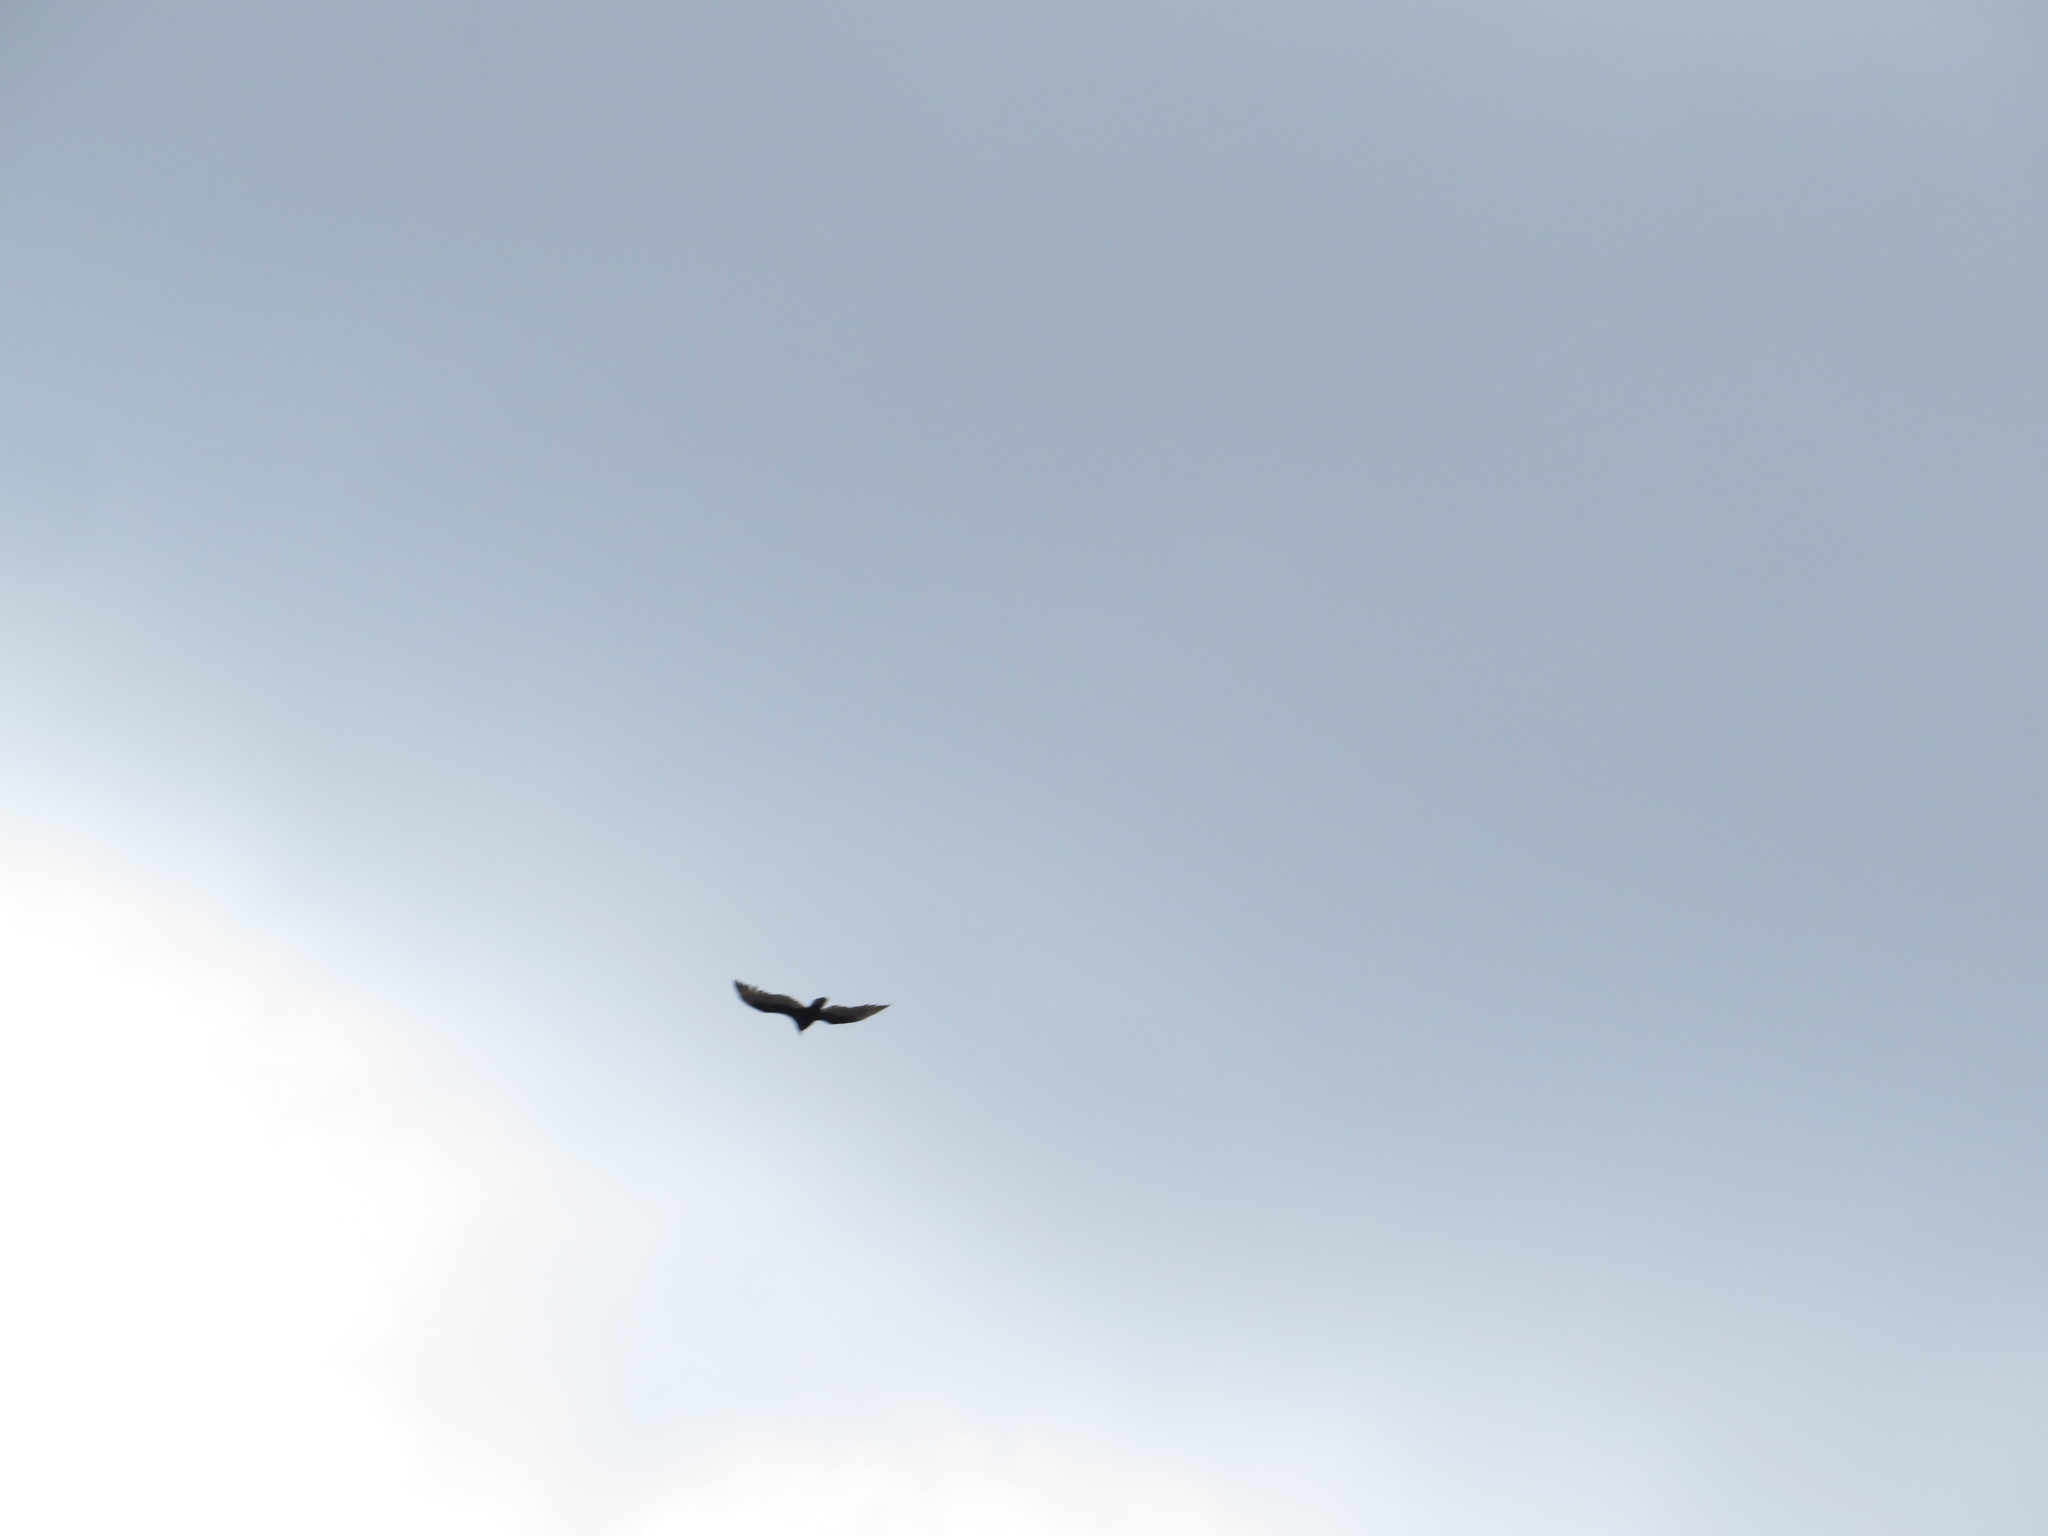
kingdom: Animalia
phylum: Chordata
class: Aves
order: Accipitriformes
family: Cathartidae
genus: Cathartes
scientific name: Cathartes aura
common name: Turkey vulture
